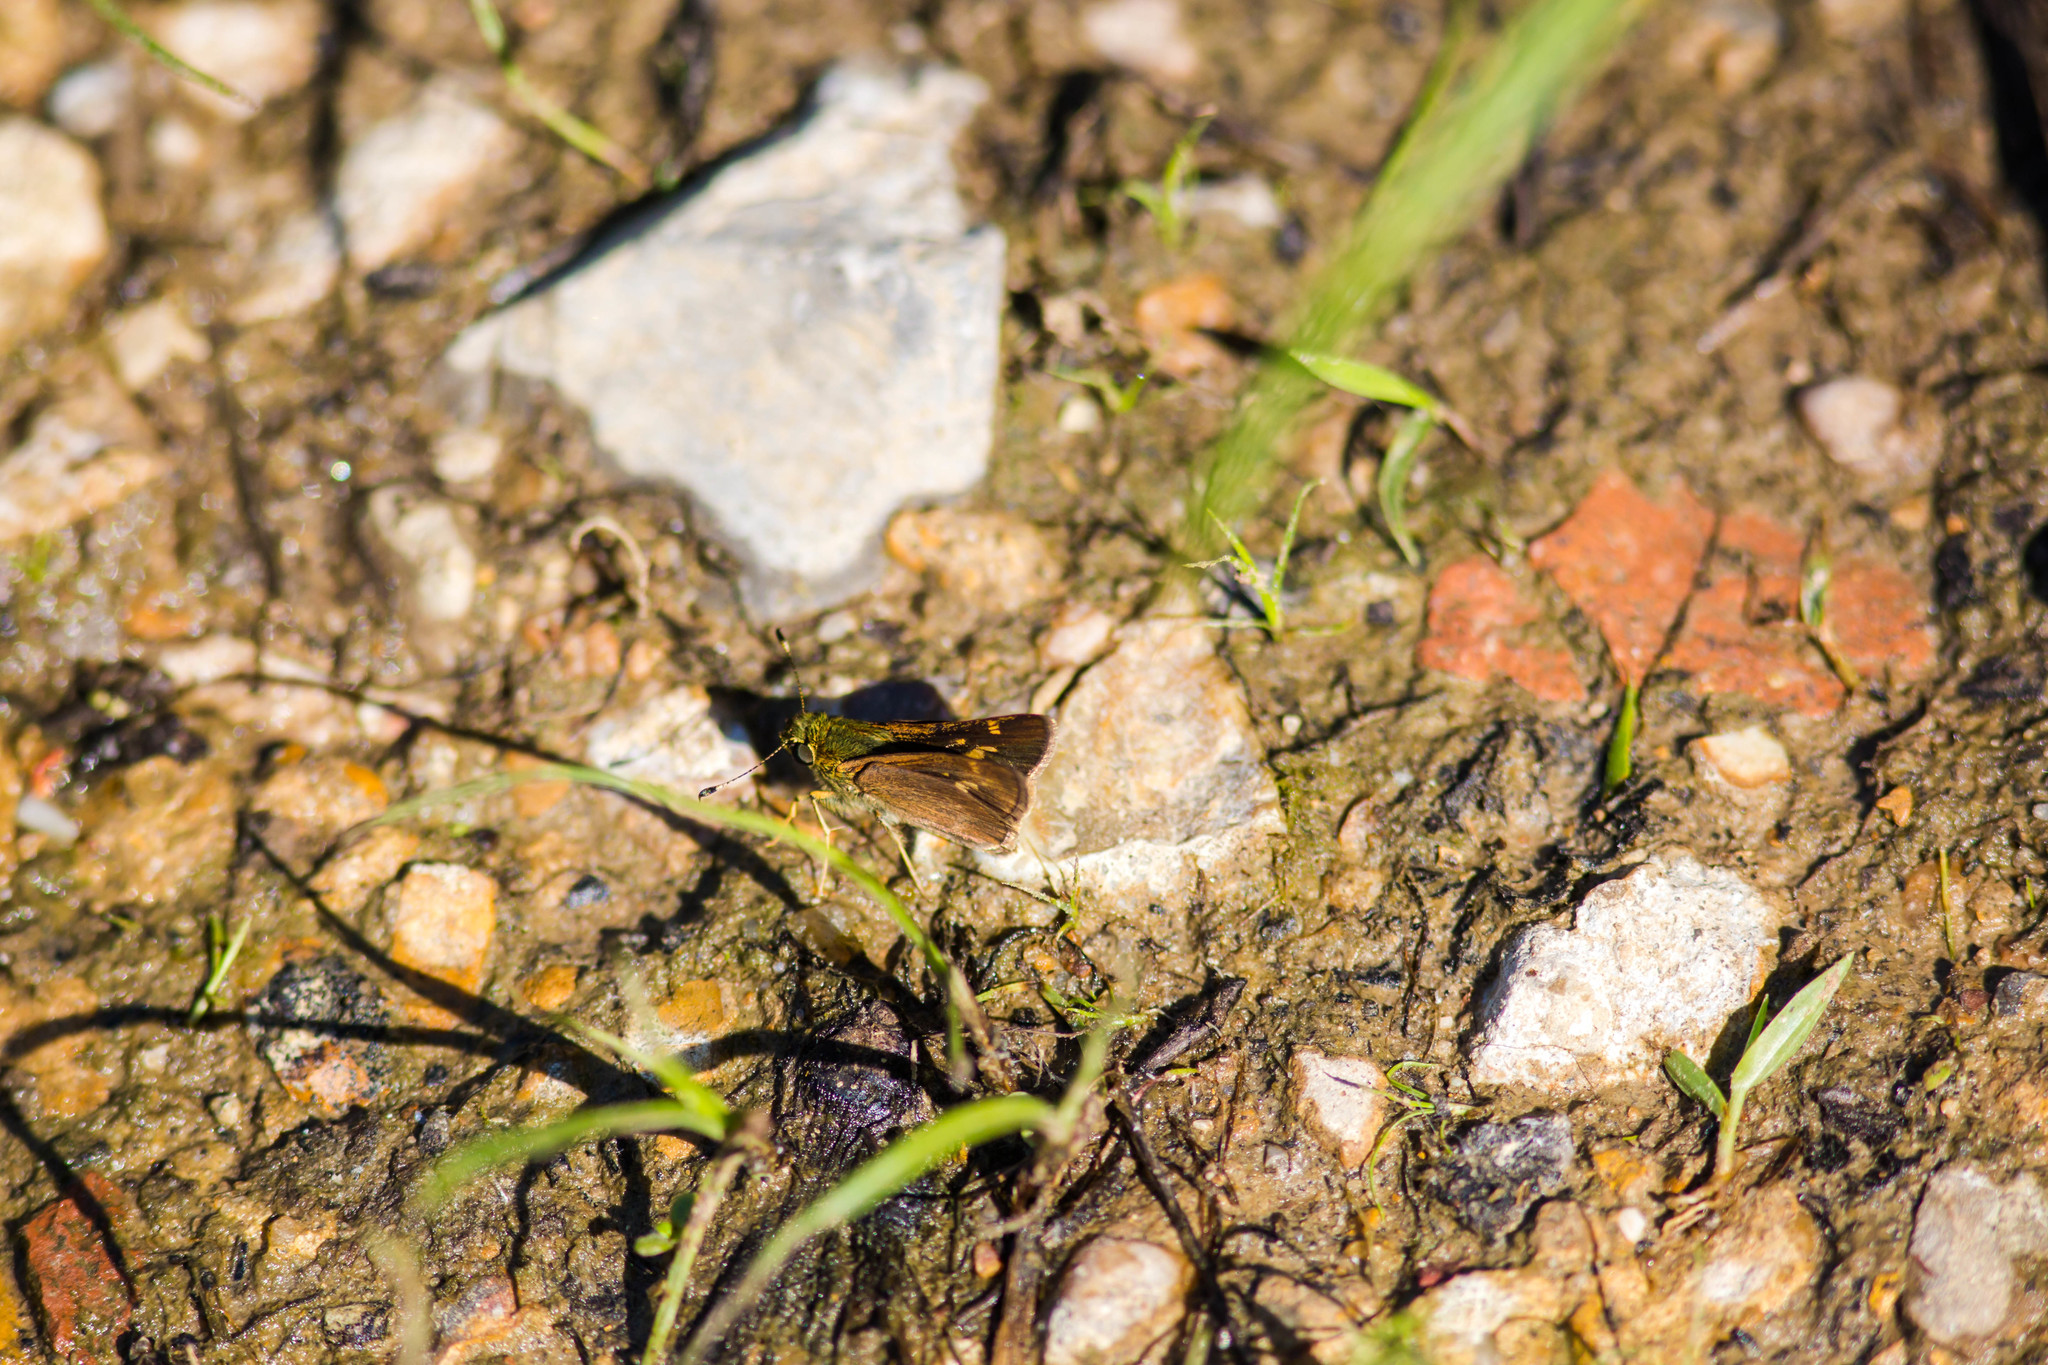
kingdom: Animalia
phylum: Arthropoda
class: Insecta
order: Lepidoptera
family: Hesperiidae
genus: Vernia
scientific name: Vernia verna
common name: Little glassywing
